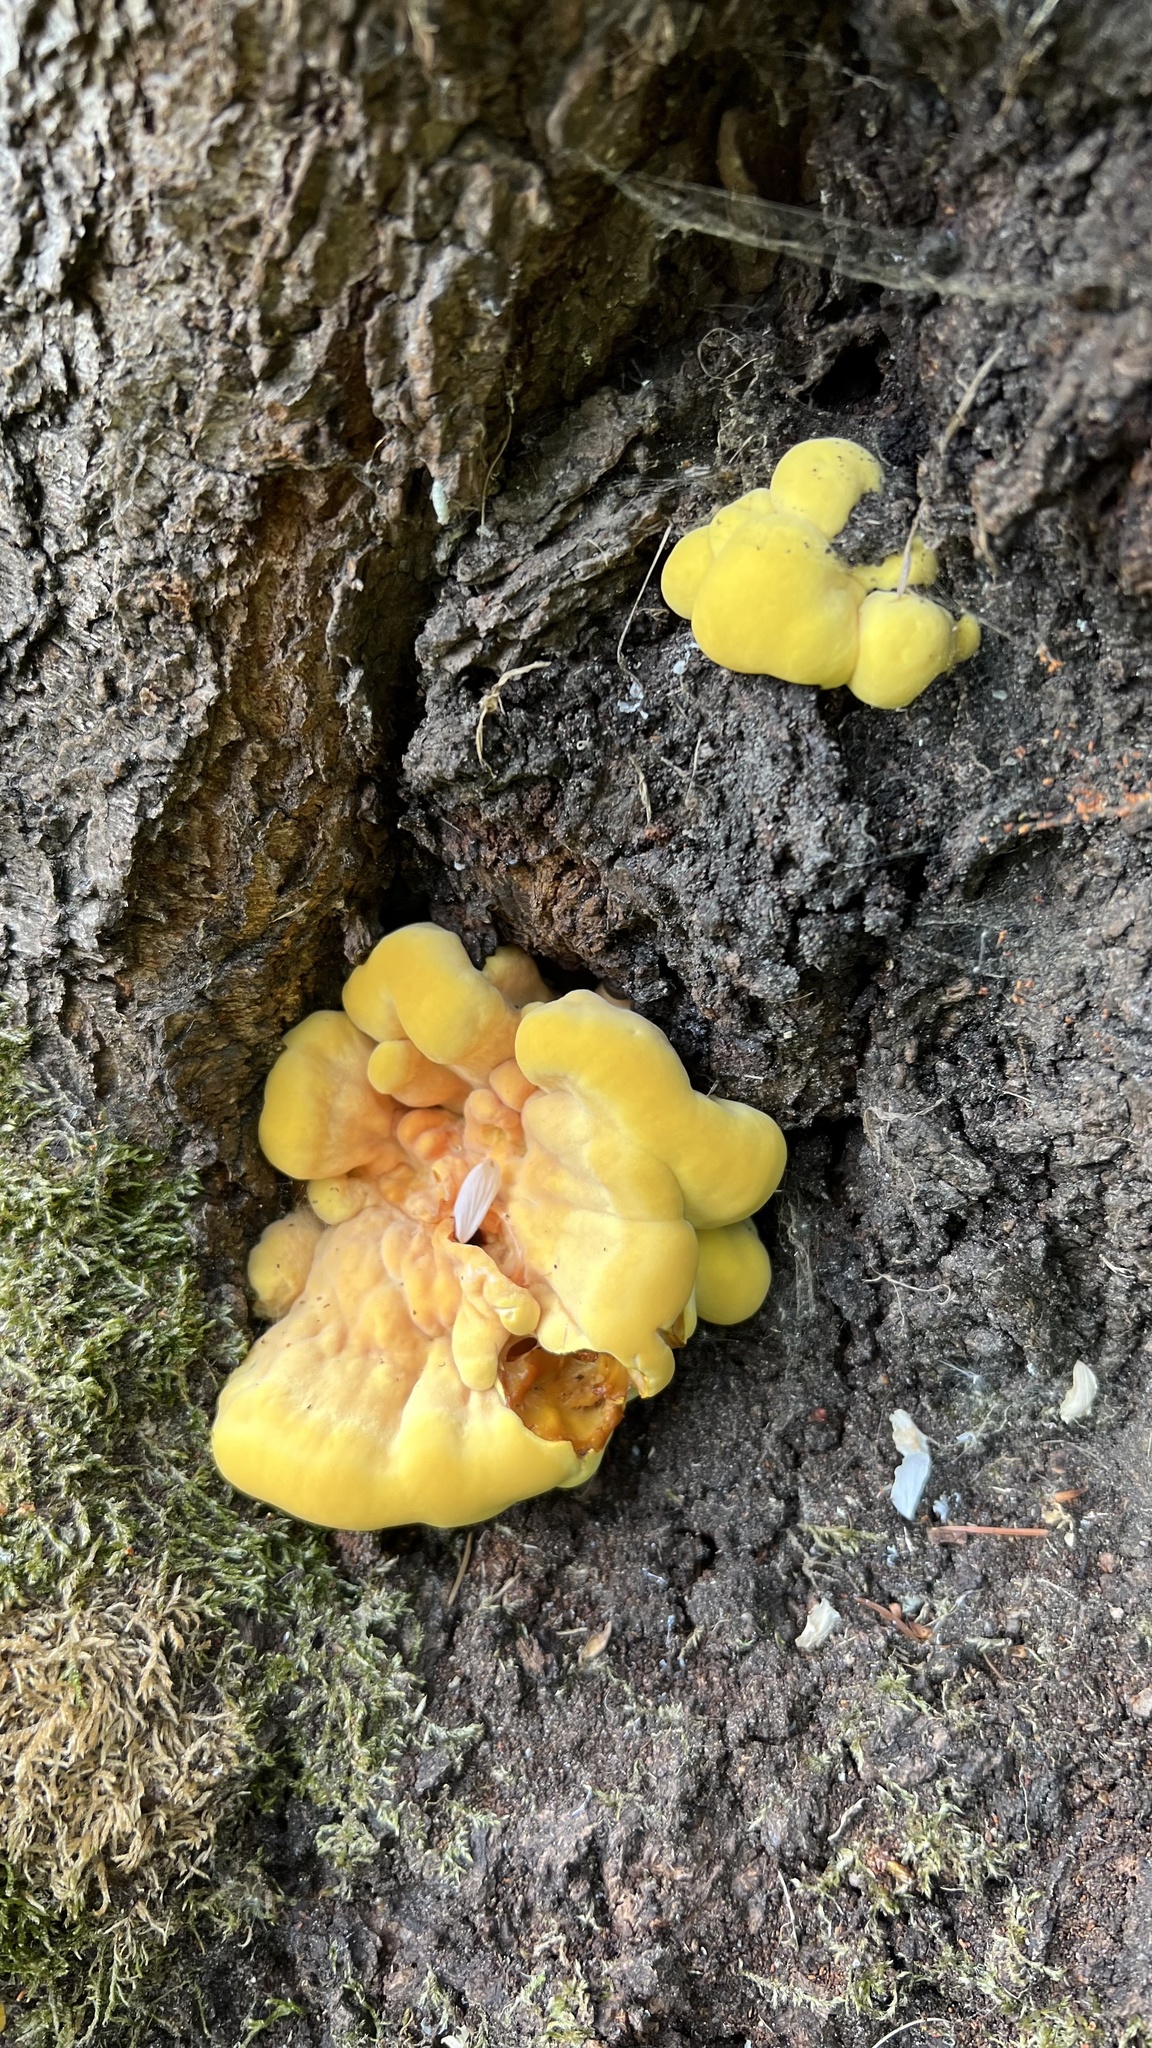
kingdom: Fungi
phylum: Basidiomycota
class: Agaricomycetes
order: Polyporales
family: Laetiporaceae
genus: Laetiporus
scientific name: Laetiporus sulphureus
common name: Chicken of the woods
